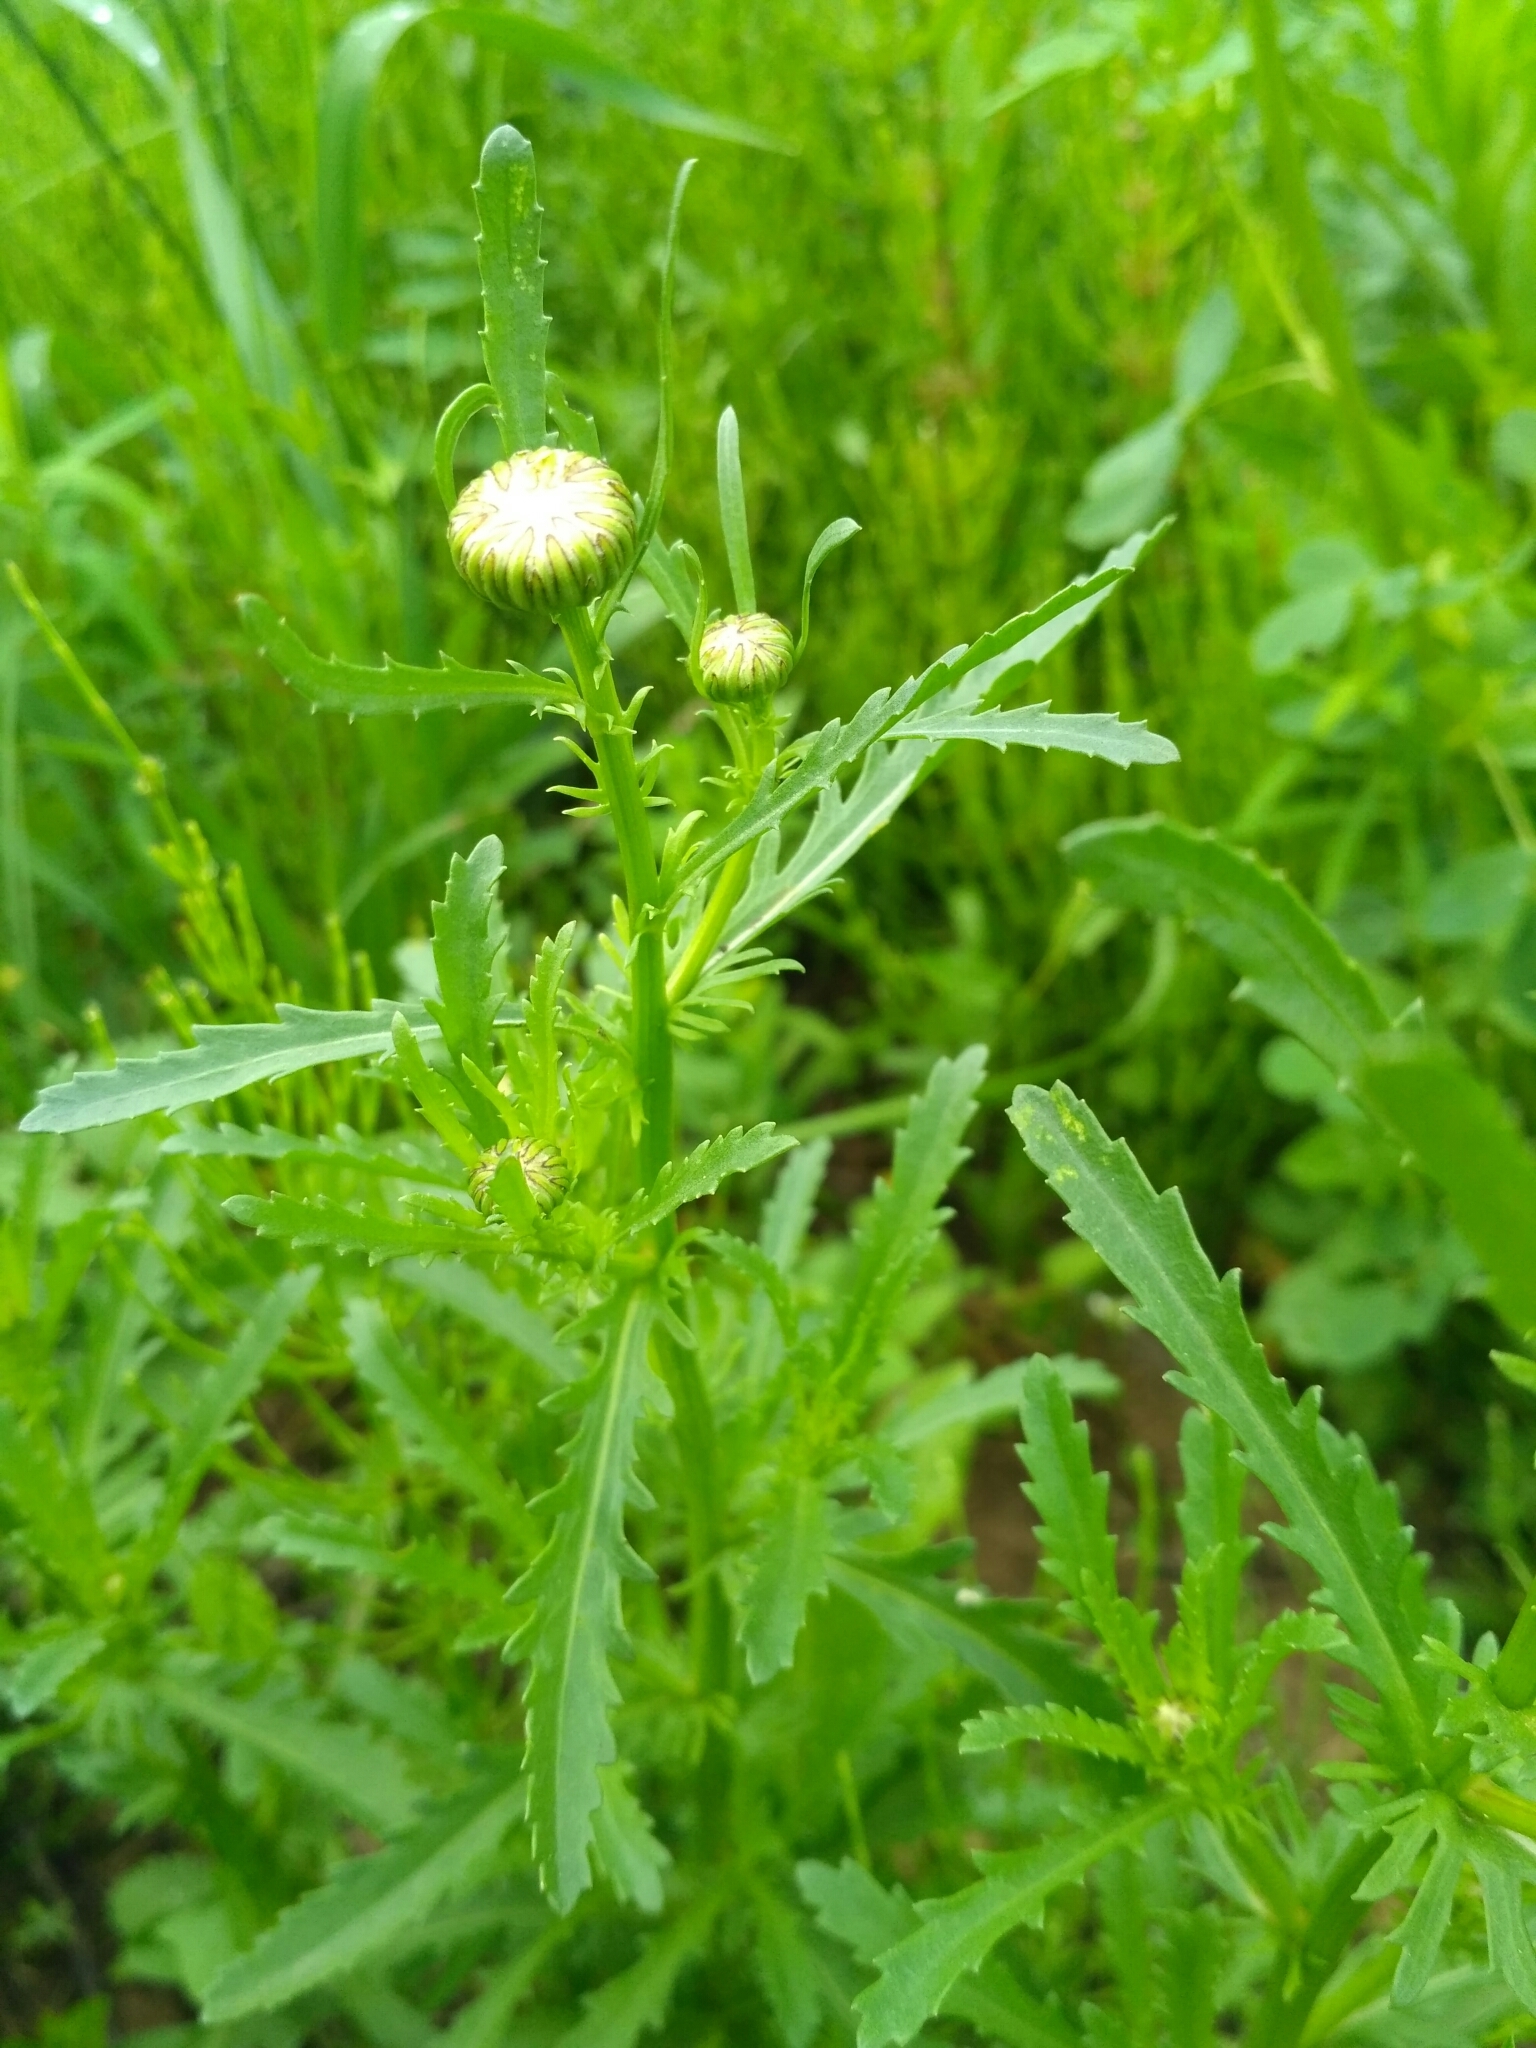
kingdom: Plantae
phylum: Tracheophyta
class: Magnoliopsida
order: Asterales
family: Asteraceae
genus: Leucanthemum
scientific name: Leucanthemum vulgare
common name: Oxeye daisy
